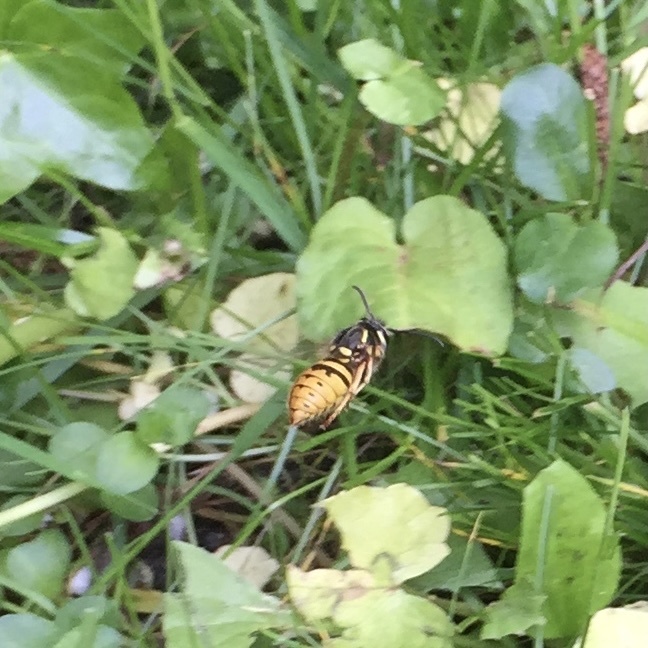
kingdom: Animalia
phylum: Arthropoda
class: Insecta
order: Hymenoptera
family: Vespidae
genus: Vespula
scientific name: Vespula vulgaris
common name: Common wasp
